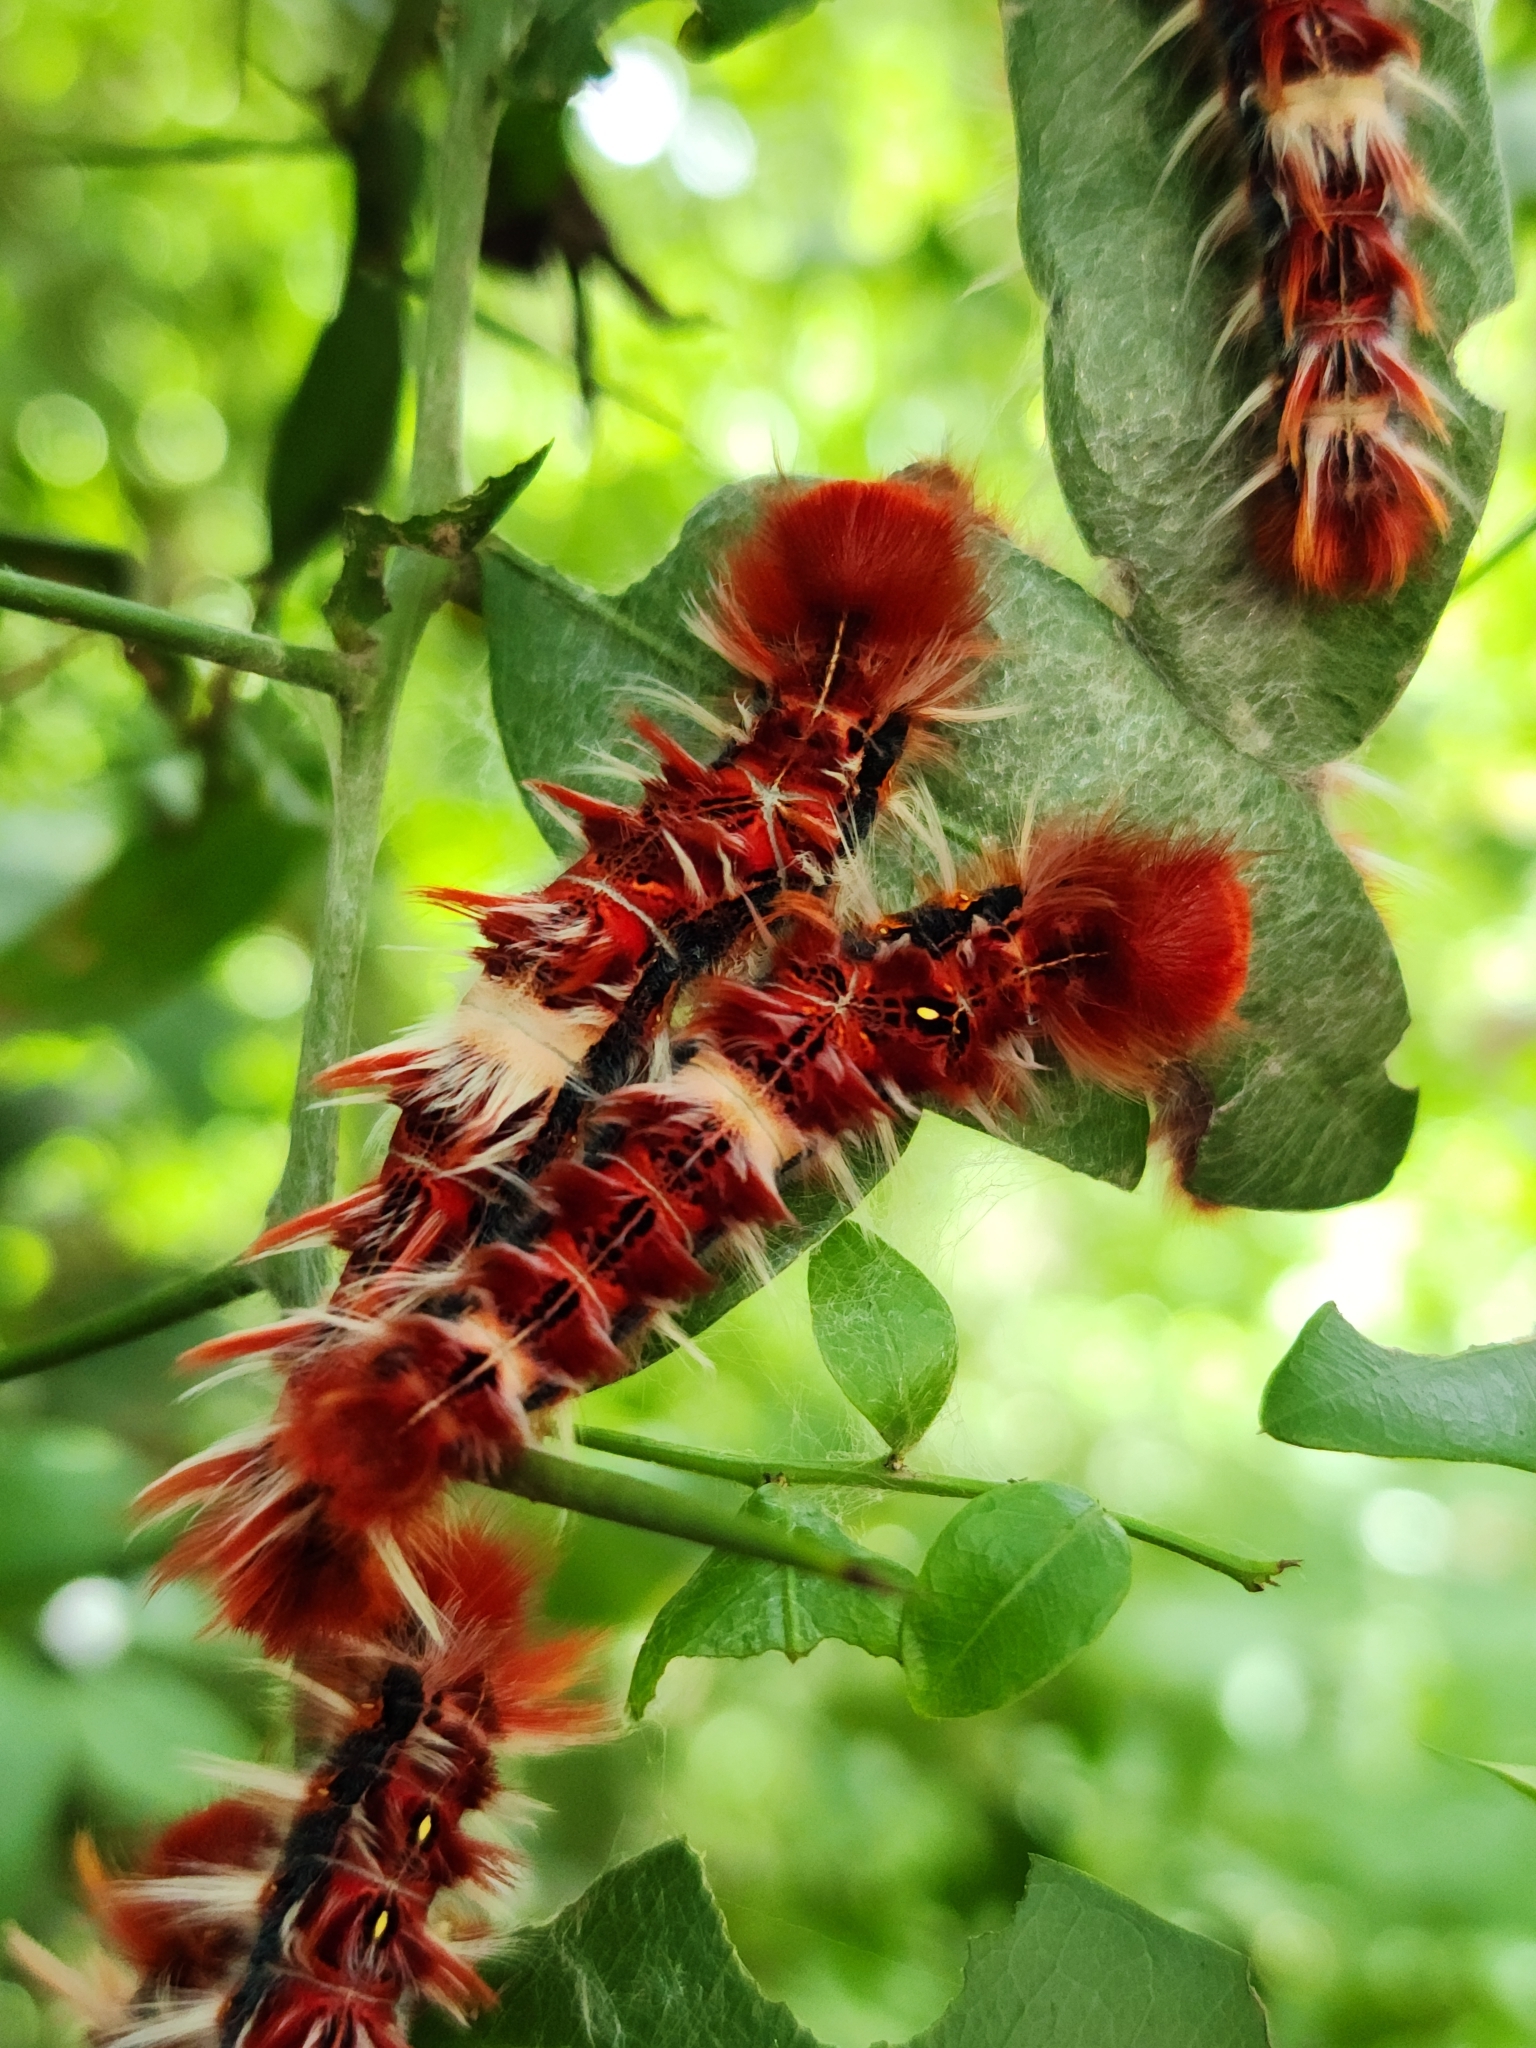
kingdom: Animalia
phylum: Arthropoda
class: Insecta
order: Lepidoptera
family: Nymphalidae
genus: Morpho
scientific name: Morpho epistrophus
